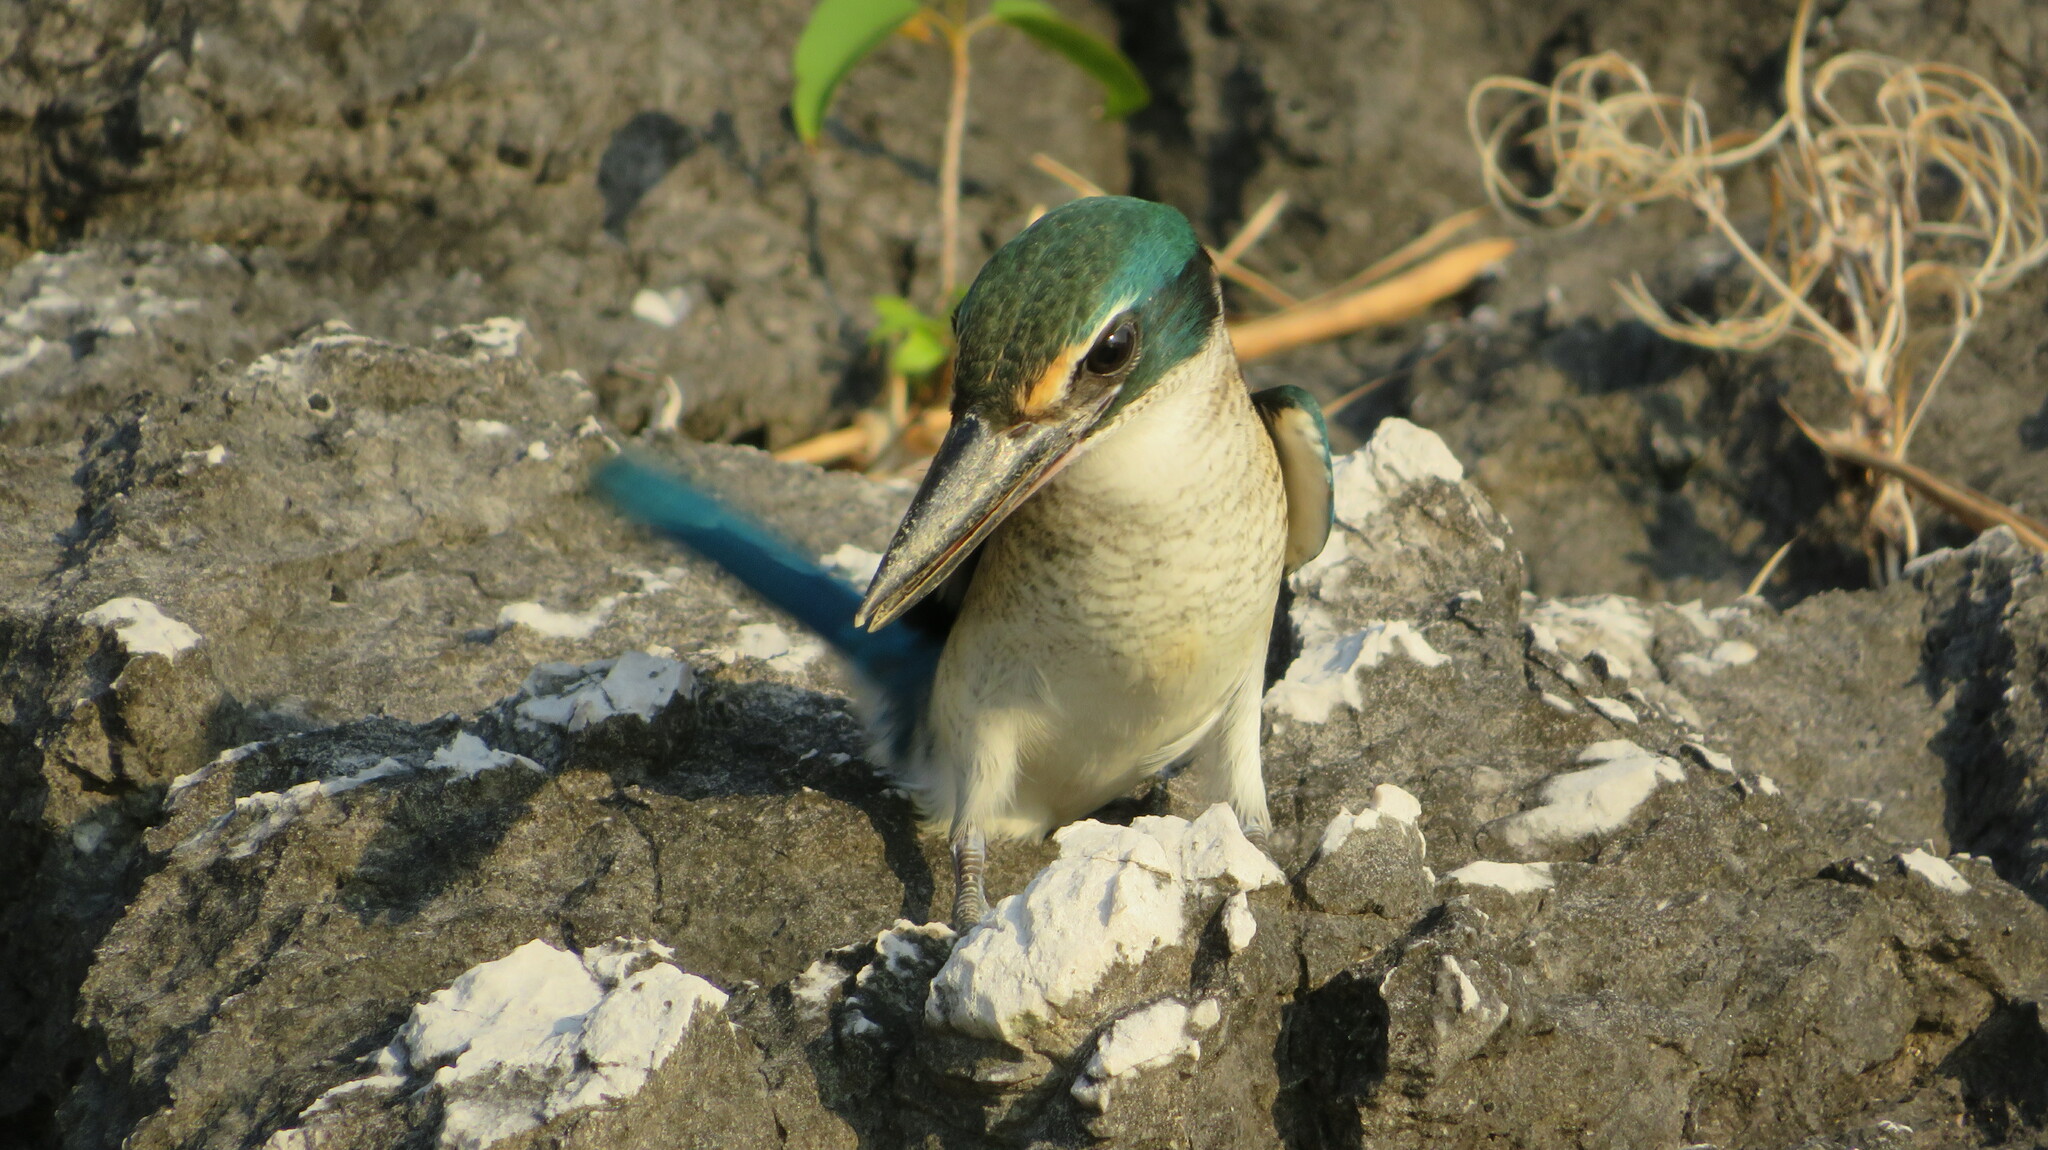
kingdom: Animalia
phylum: Chordata
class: Aves
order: Coraciiformes
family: Alcedinidae
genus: Todiramphus
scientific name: Todiramphus chloris
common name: Collared kingfisher
